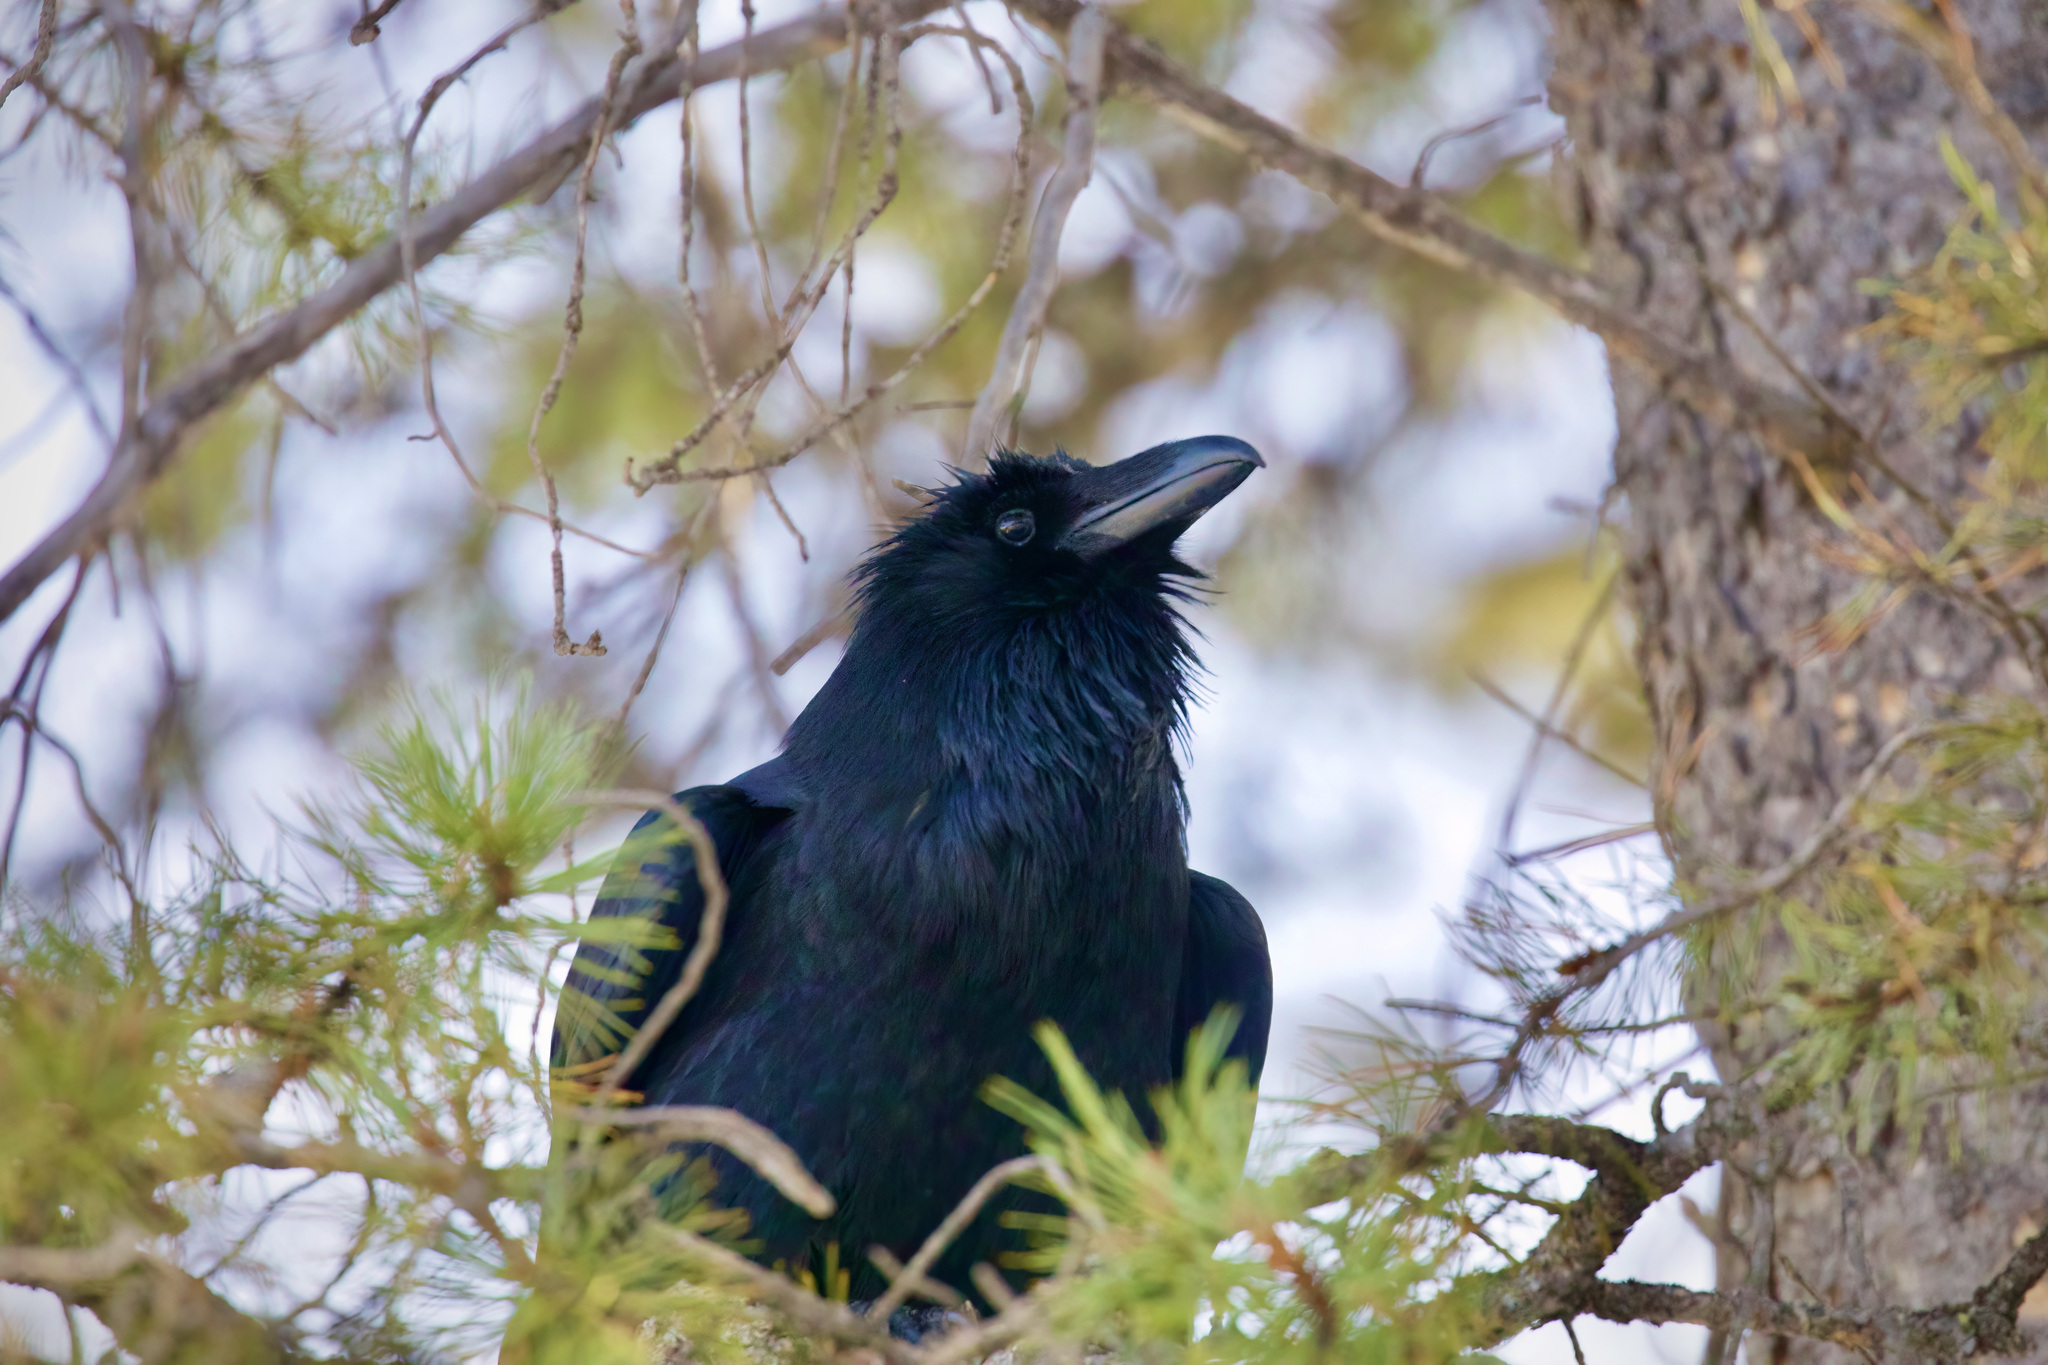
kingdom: Animalia
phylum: Chordata
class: Aves
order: Passeriformes
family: Corvidae
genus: Corvus
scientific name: Corvus corax
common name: Common raven
